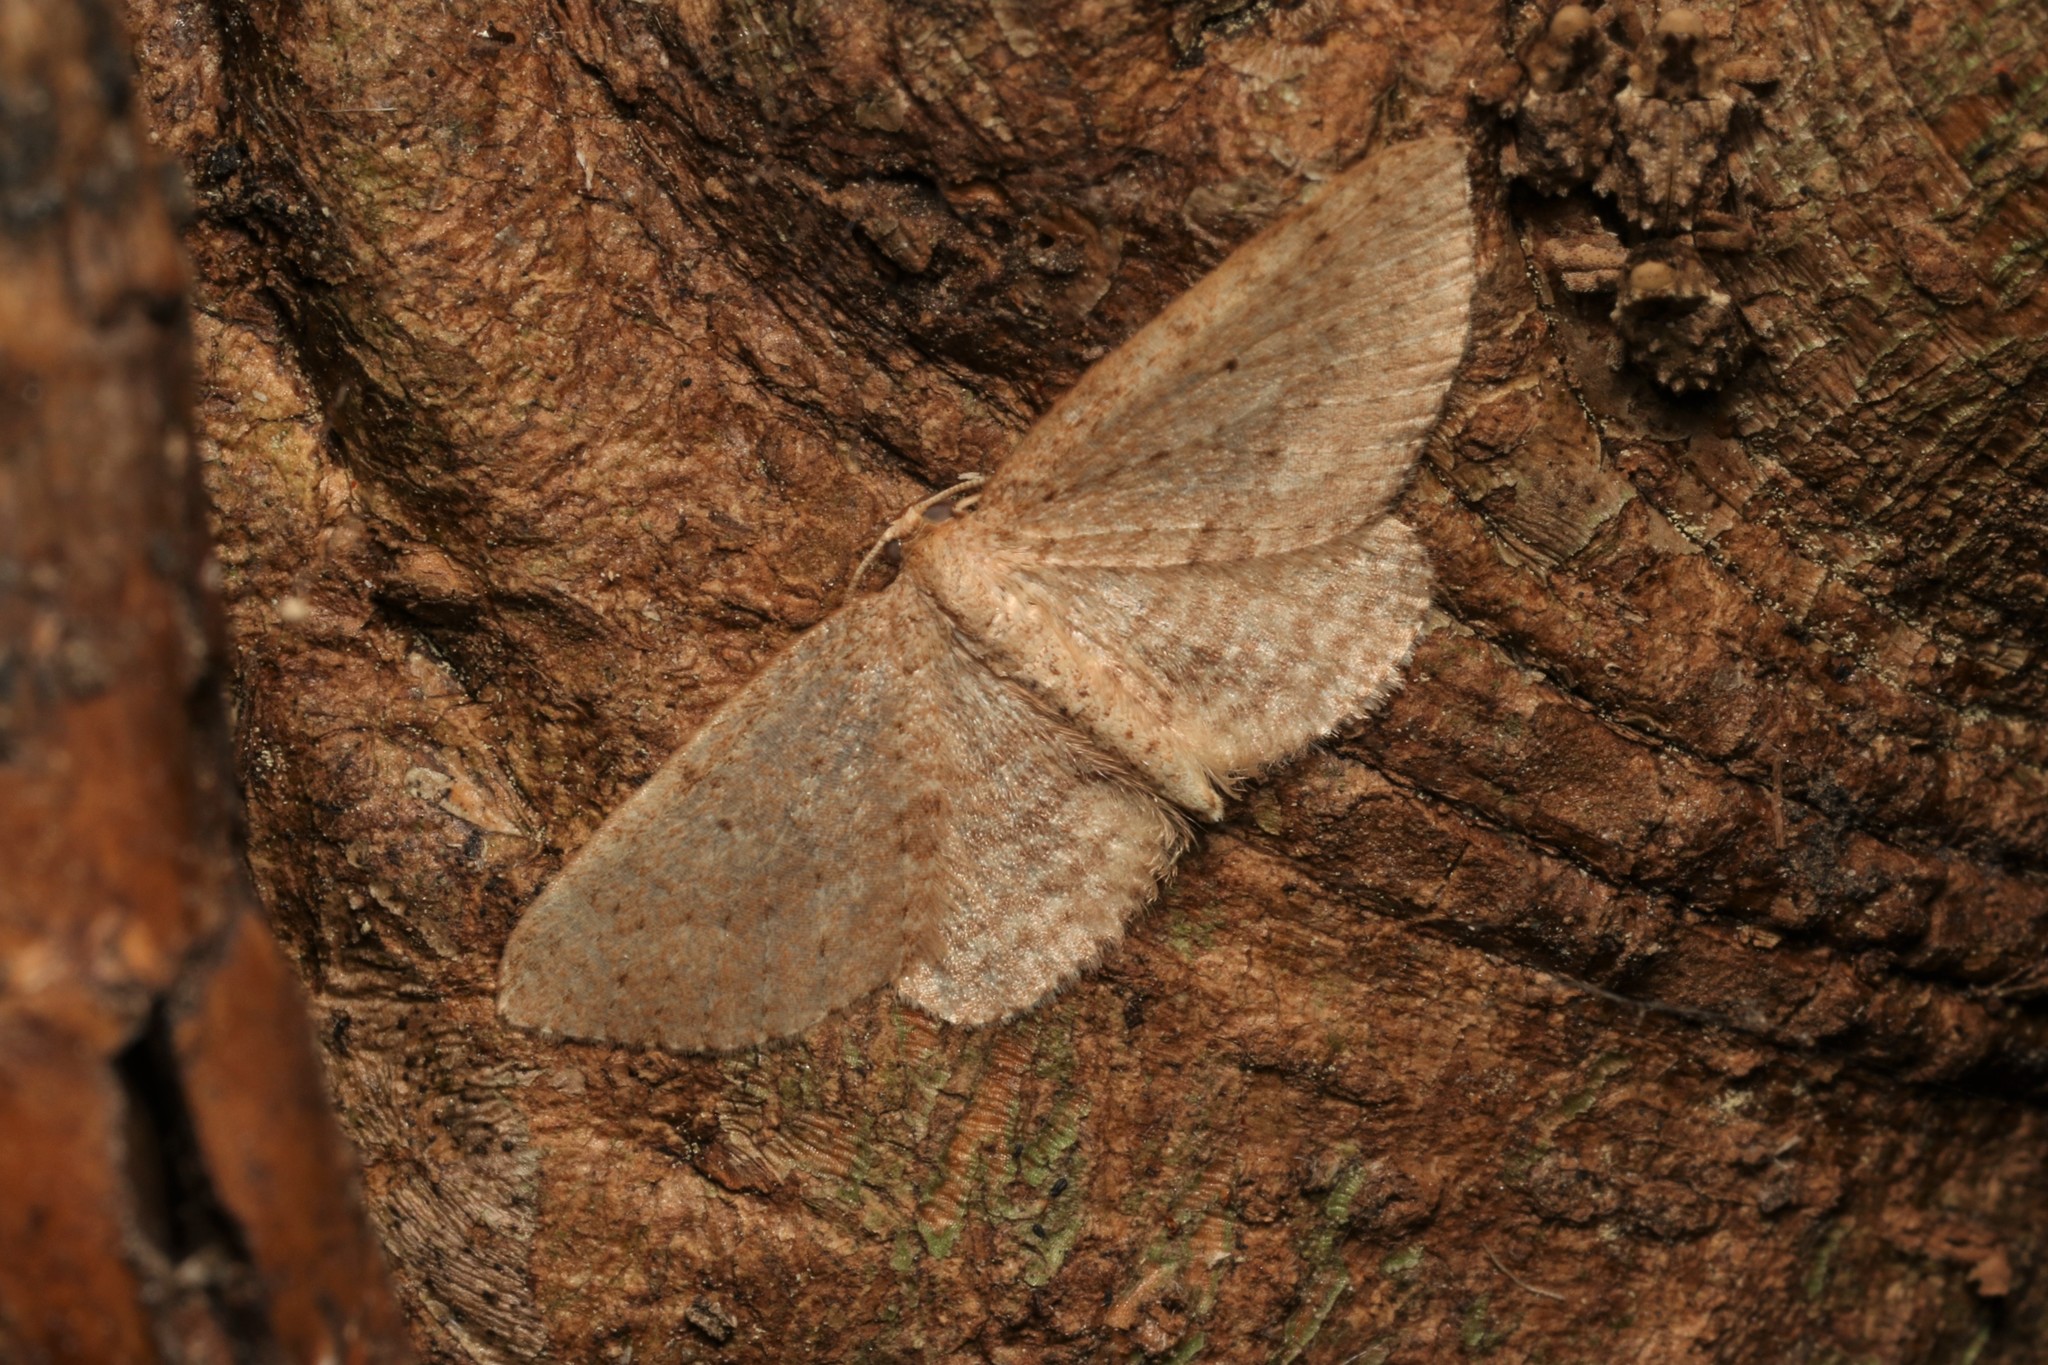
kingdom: Animalia
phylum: Arthropoda
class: Insecta
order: Lepidoptera
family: Geometridae
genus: Poecilasthena
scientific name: Poecilasthena schistaria
